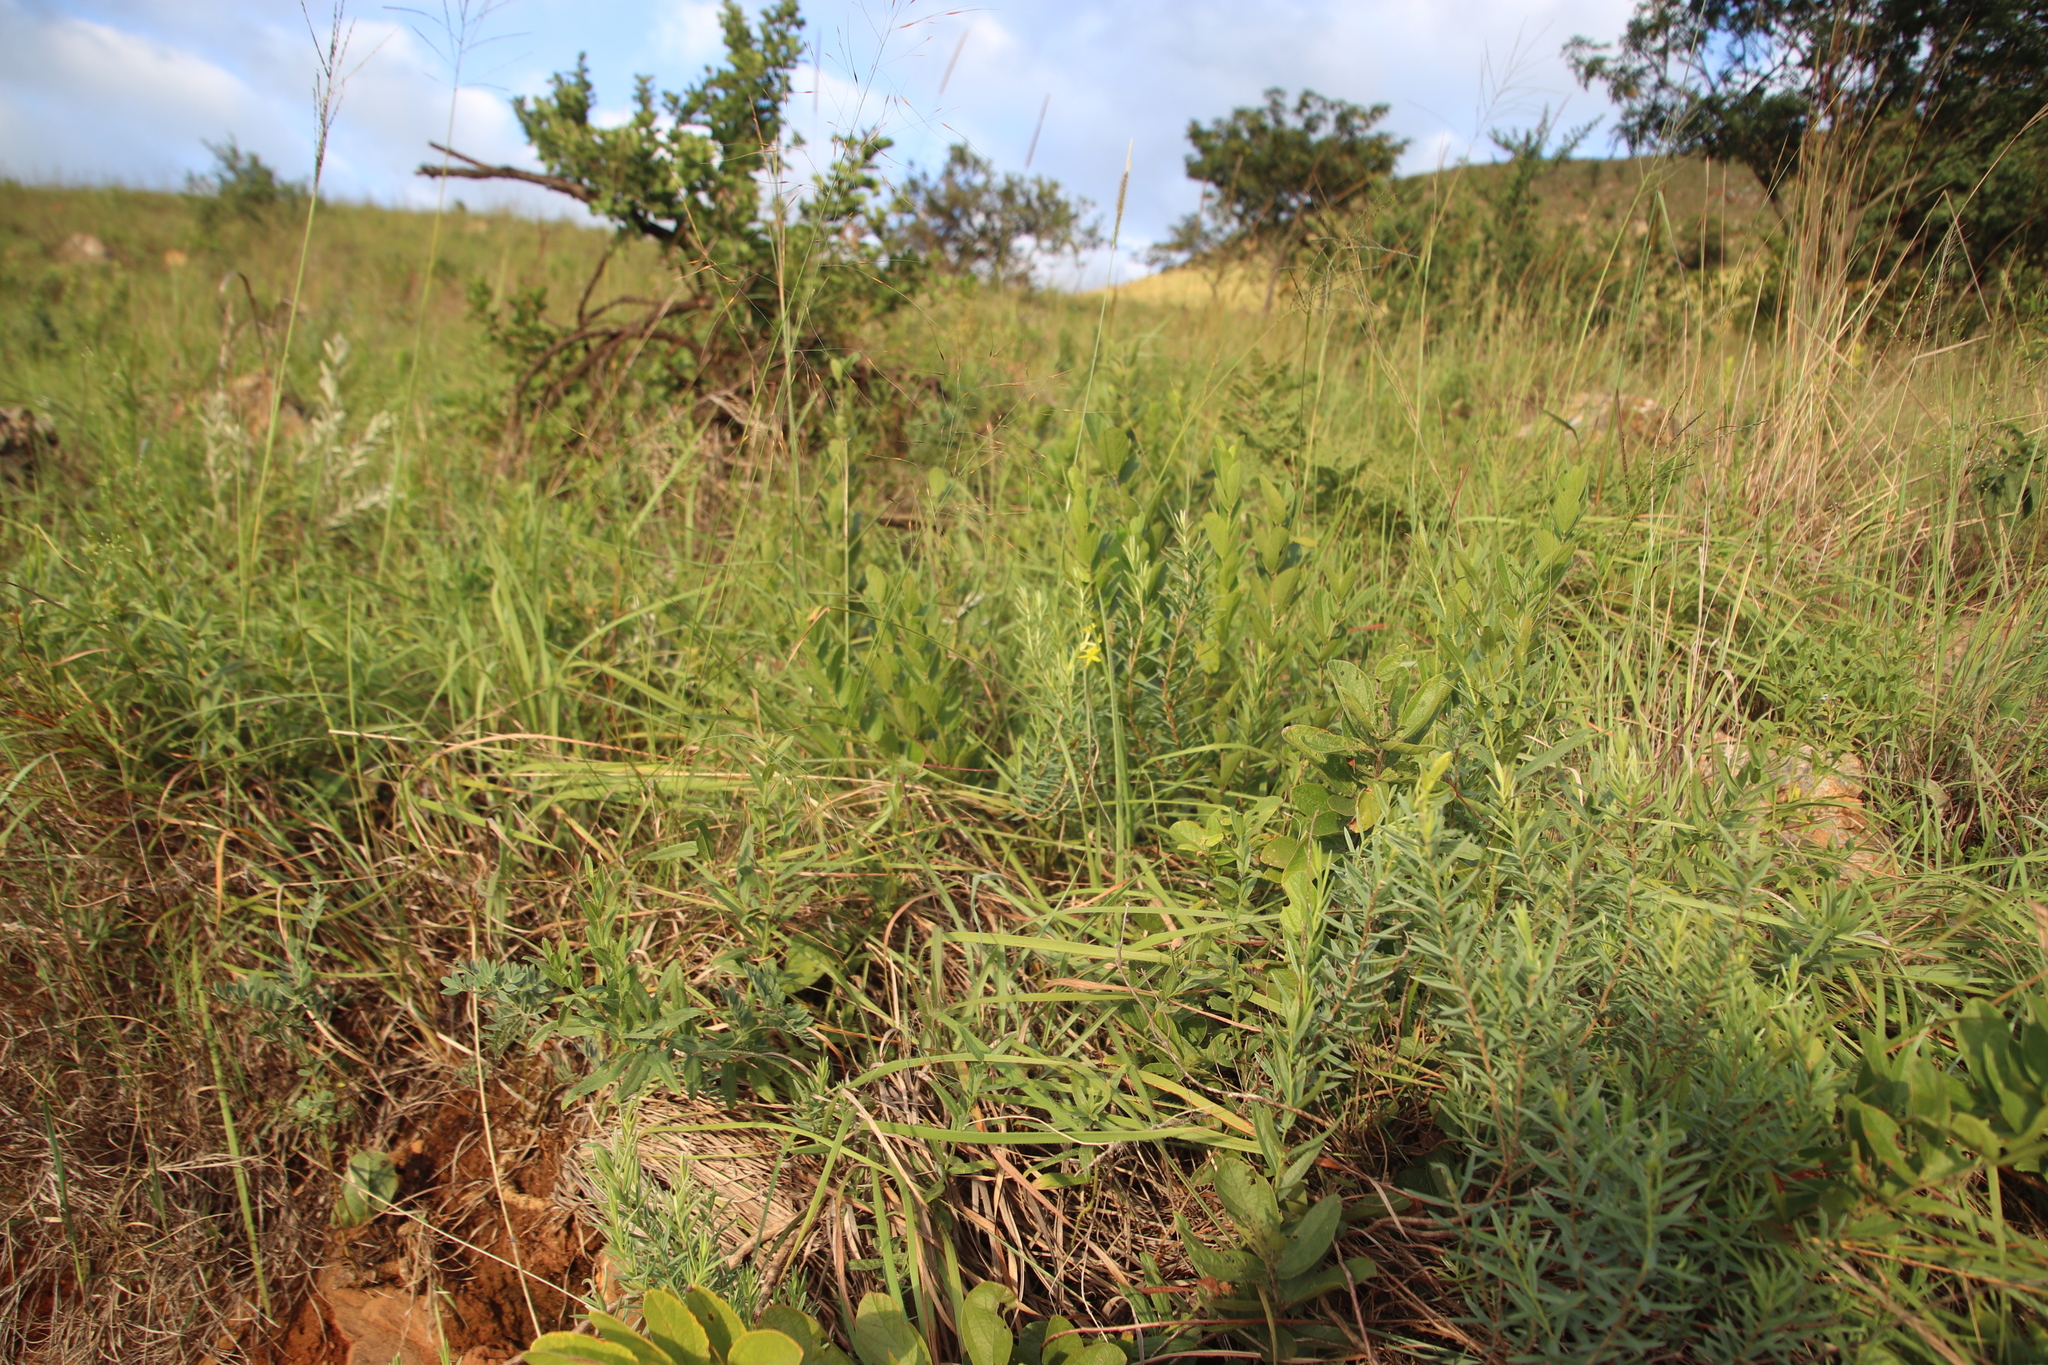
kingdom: Plantae
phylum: Tracheophyta
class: Magnoliopsida
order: Malvales
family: Thymelaeaceae
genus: Gnidia
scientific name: Gnidia caffra
